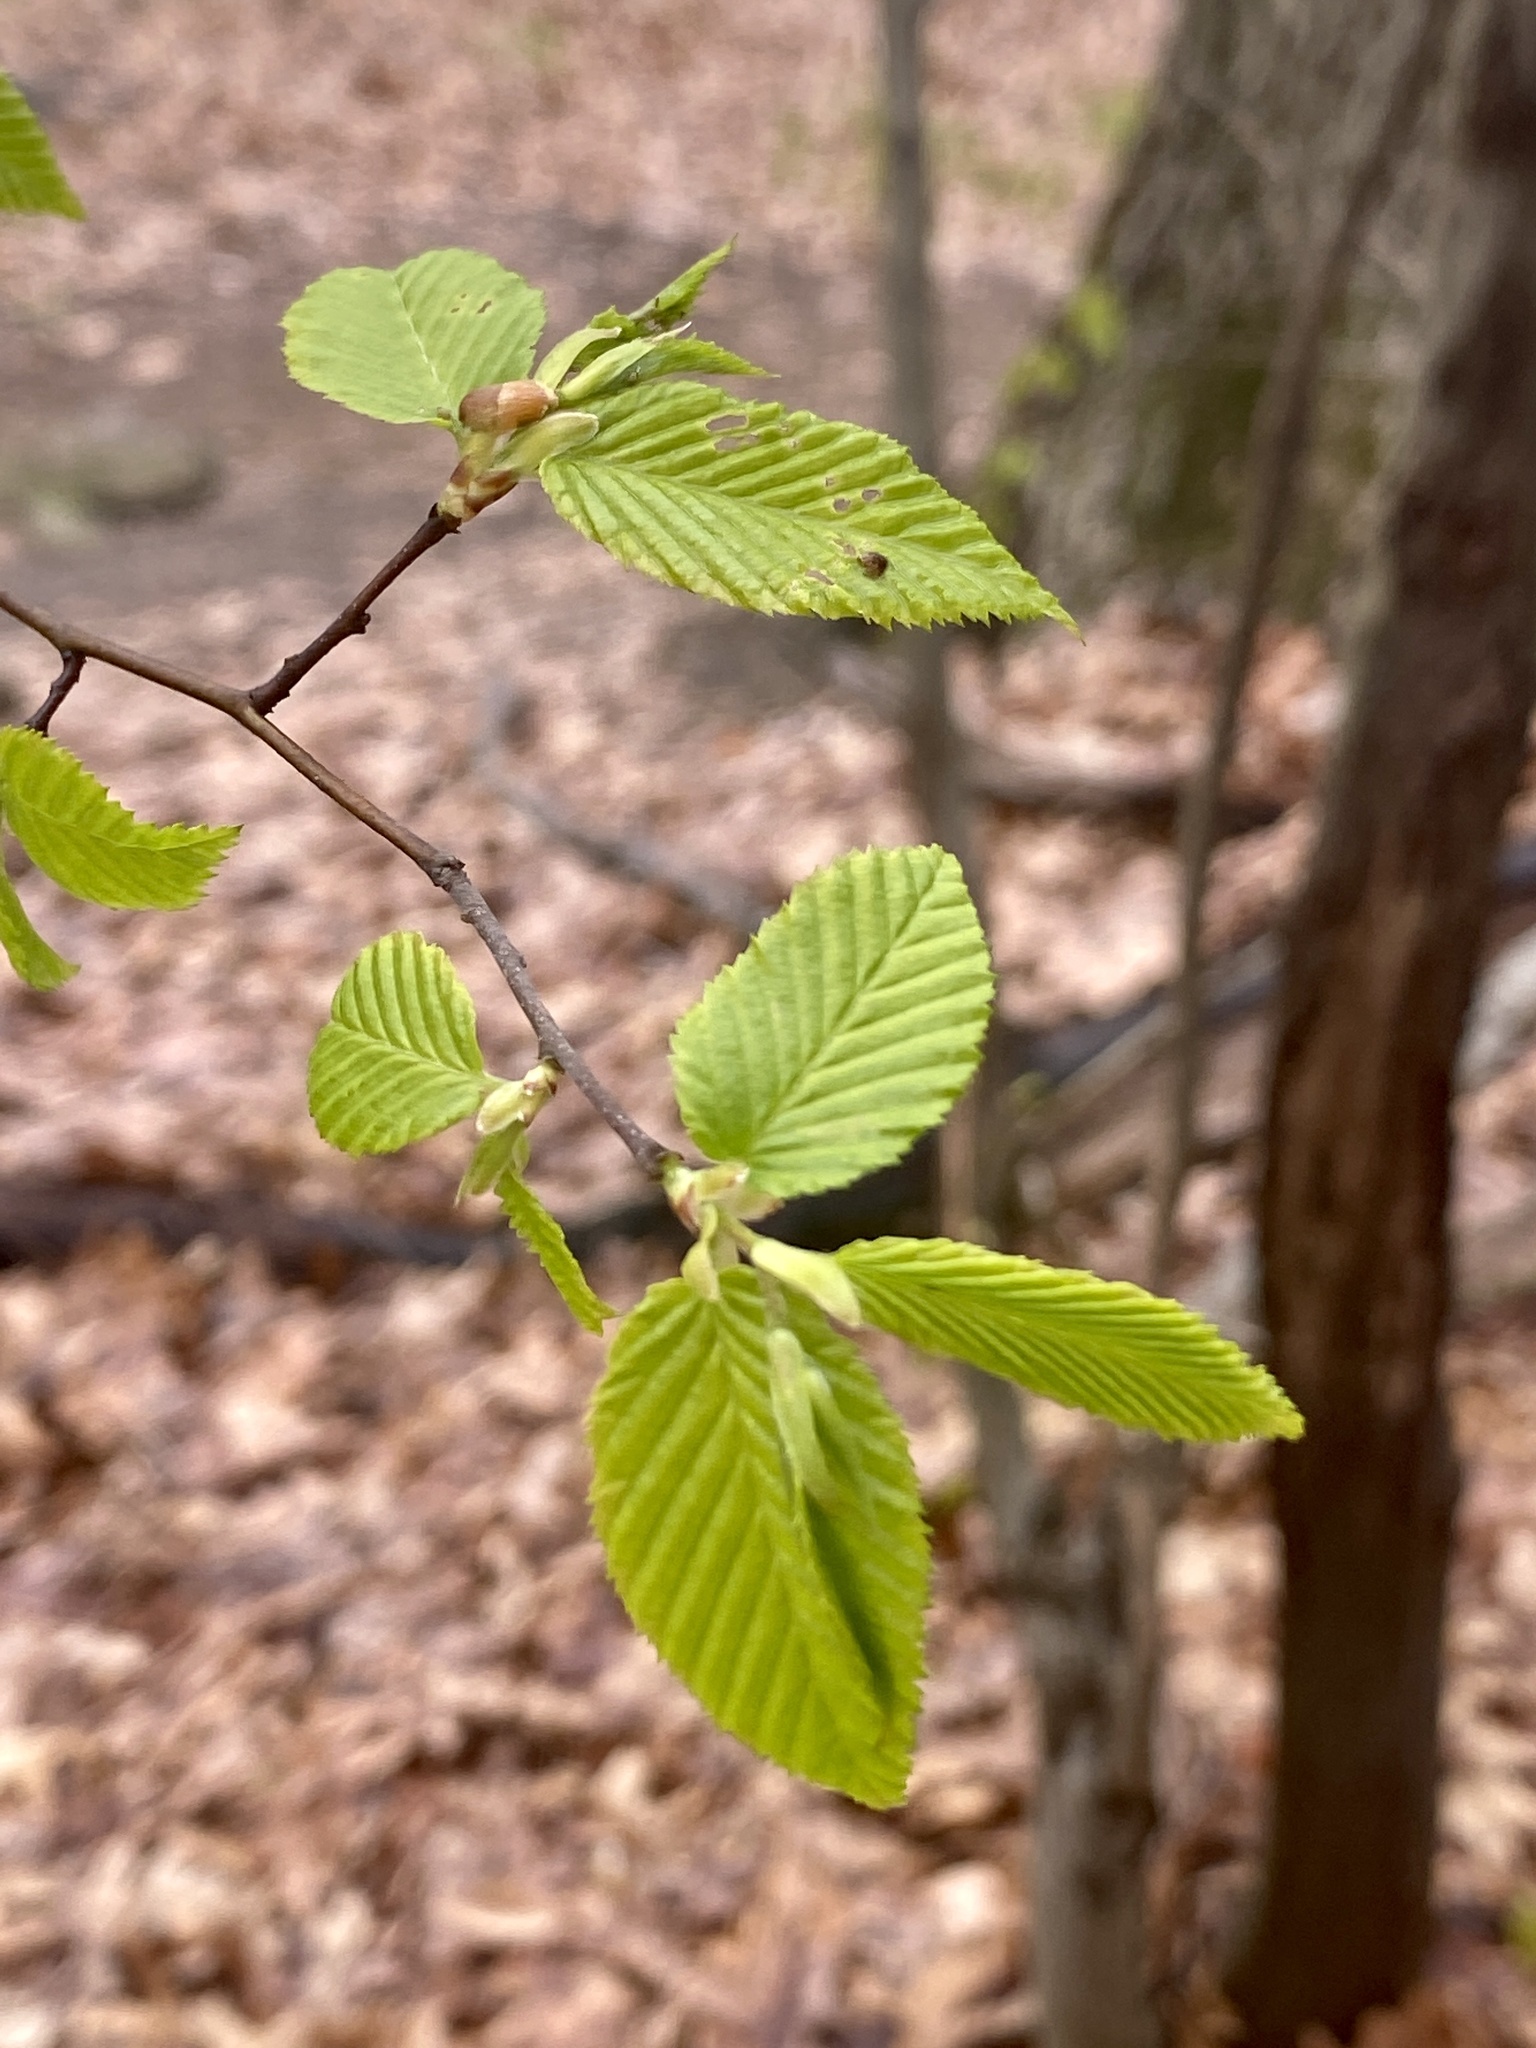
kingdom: Plantae
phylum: Tracheophyta
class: Magnoliopsida
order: Fagales
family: Betulaceae
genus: Carpinus
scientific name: Carpinus caroliniana
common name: American hornbeam
